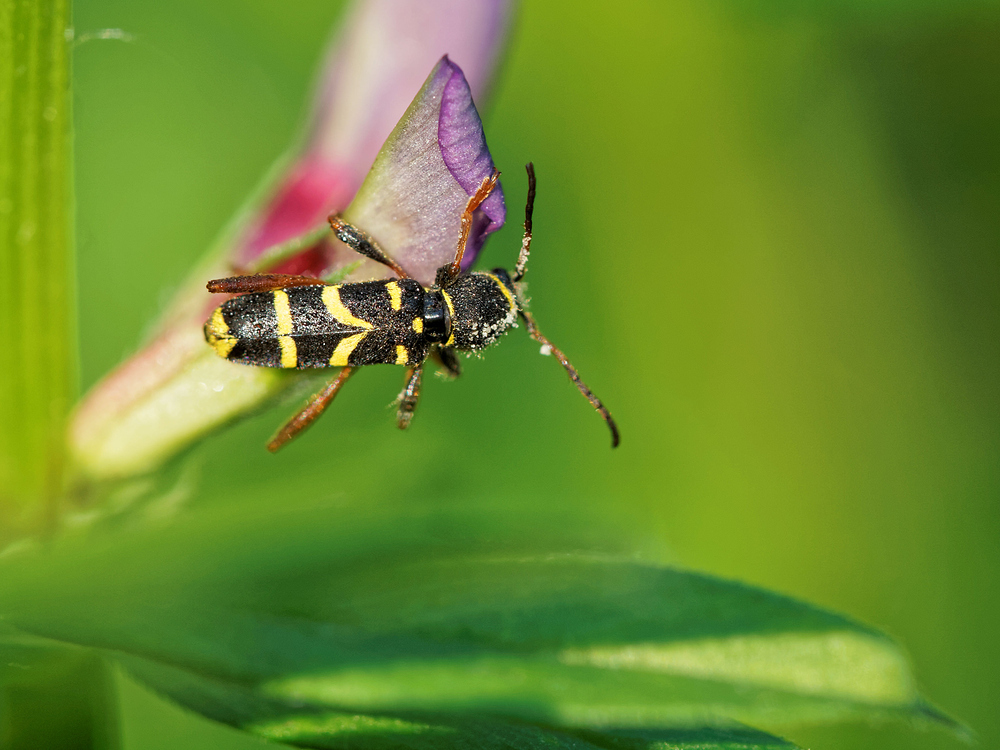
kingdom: Animalia
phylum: Arthropoda
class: Insecta
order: Coleoptera
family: Cerambycidae
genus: Clytus
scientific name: Clytus arietis
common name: Wasp beetle
